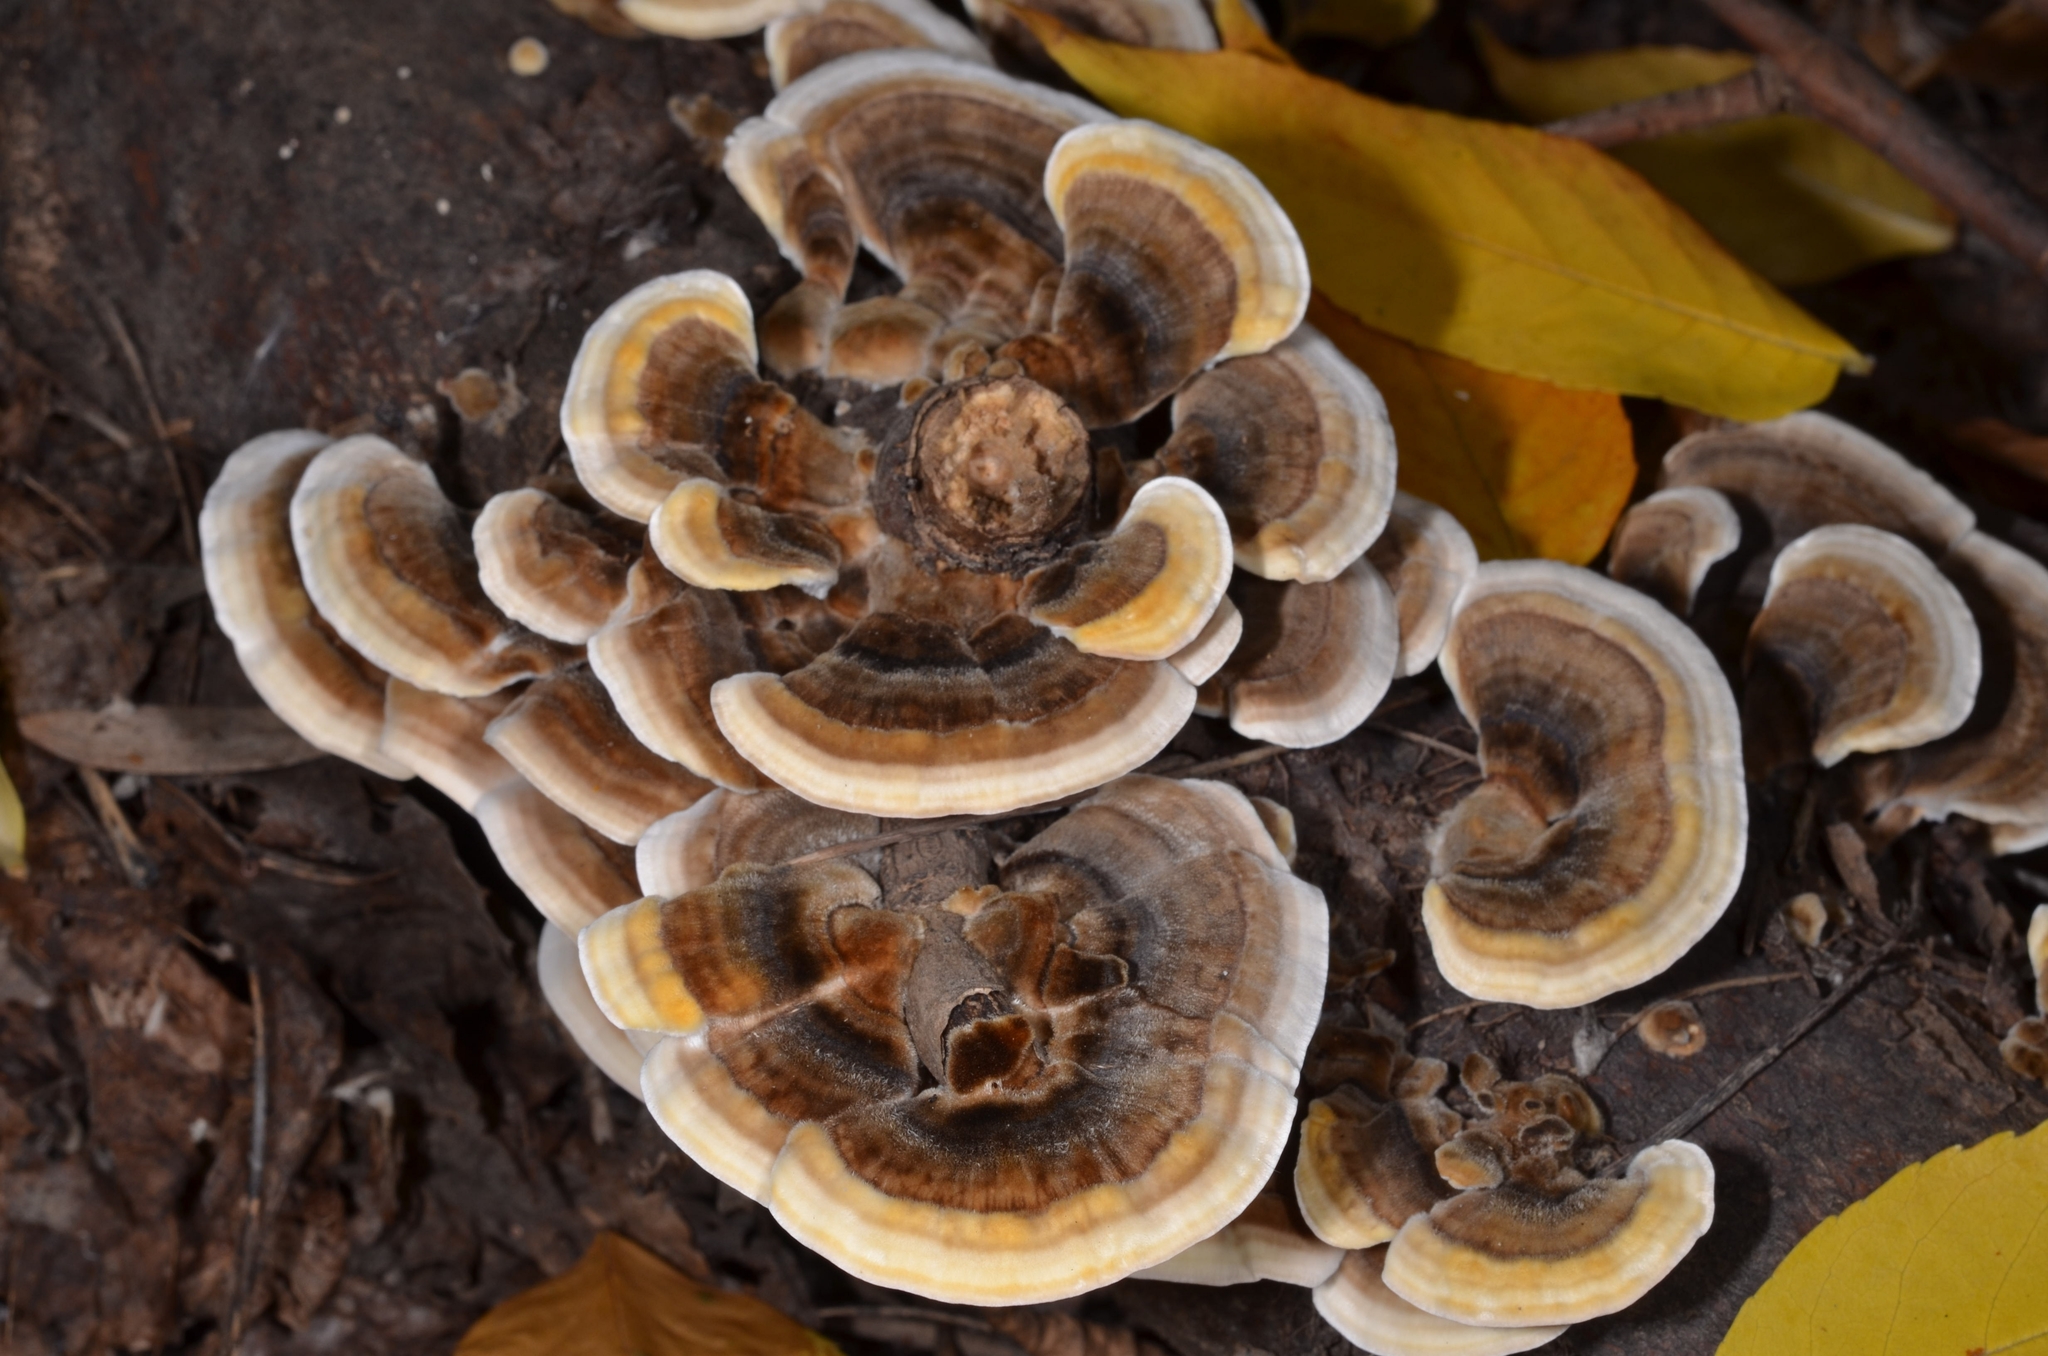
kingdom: Fungi
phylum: Basidiomycota
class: Agaricomycetes
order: Polyporales
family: Polyporaceae
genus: Trametes
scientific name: Trametes versicolor
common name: Turkeytail
